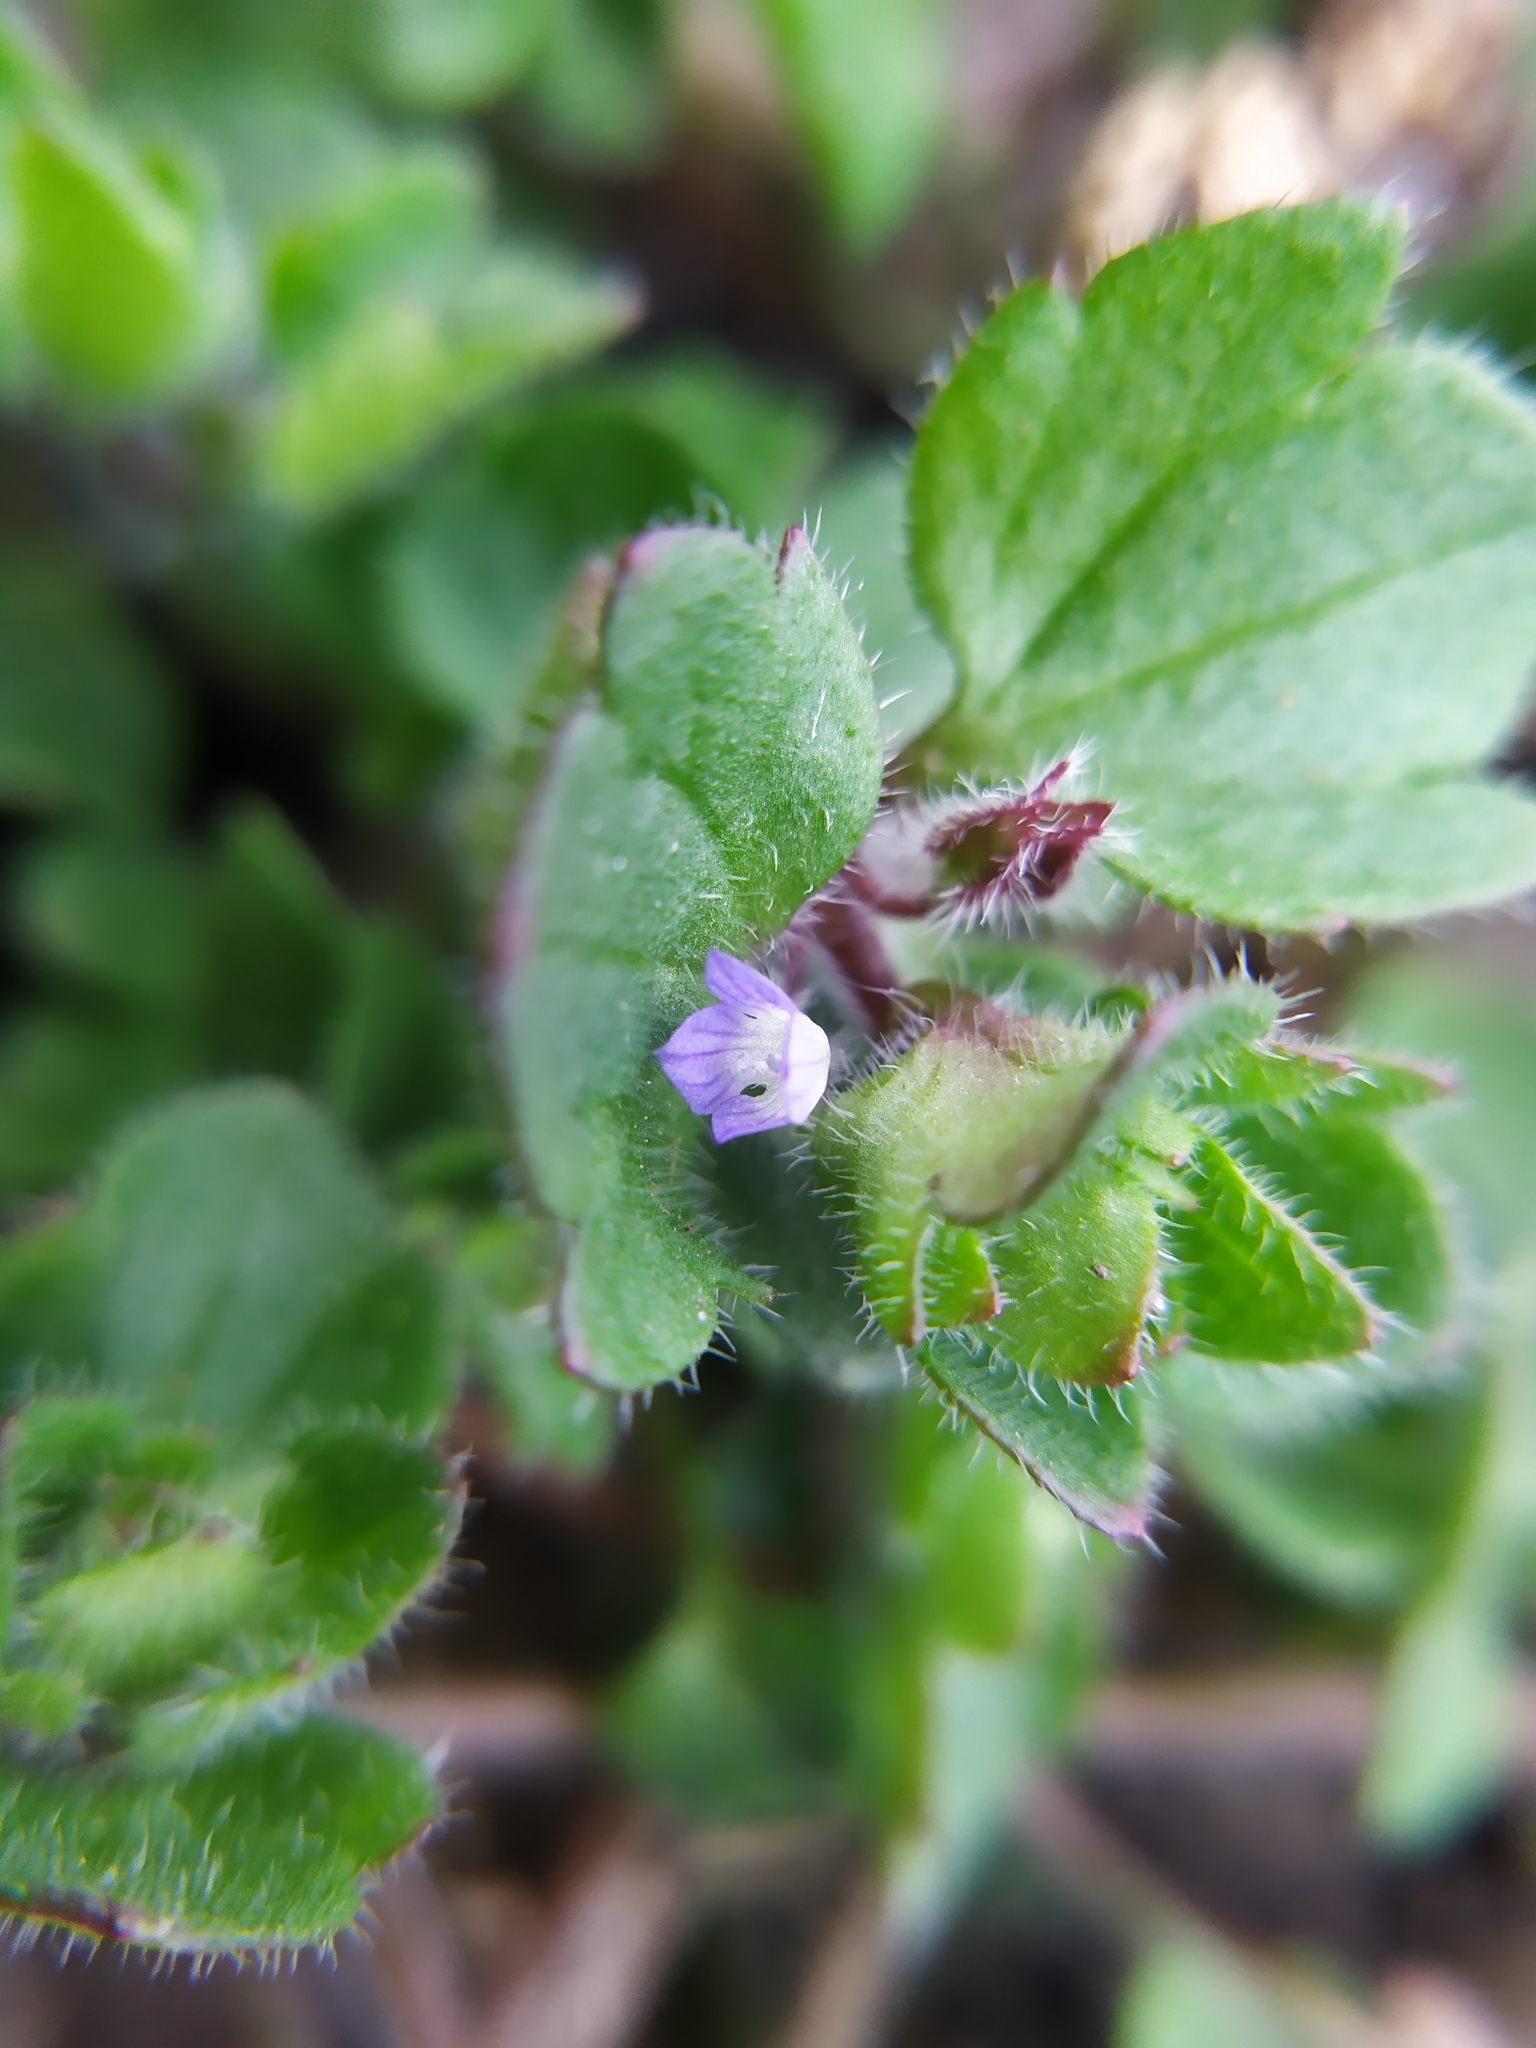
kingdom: Plantae
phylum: Tracheophyta
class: Magnoliopsida
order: Lamiales
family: Plantaginaceae
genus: Veronica
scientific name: Veronica hederifolia
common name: Ivy-leaved speedwell
